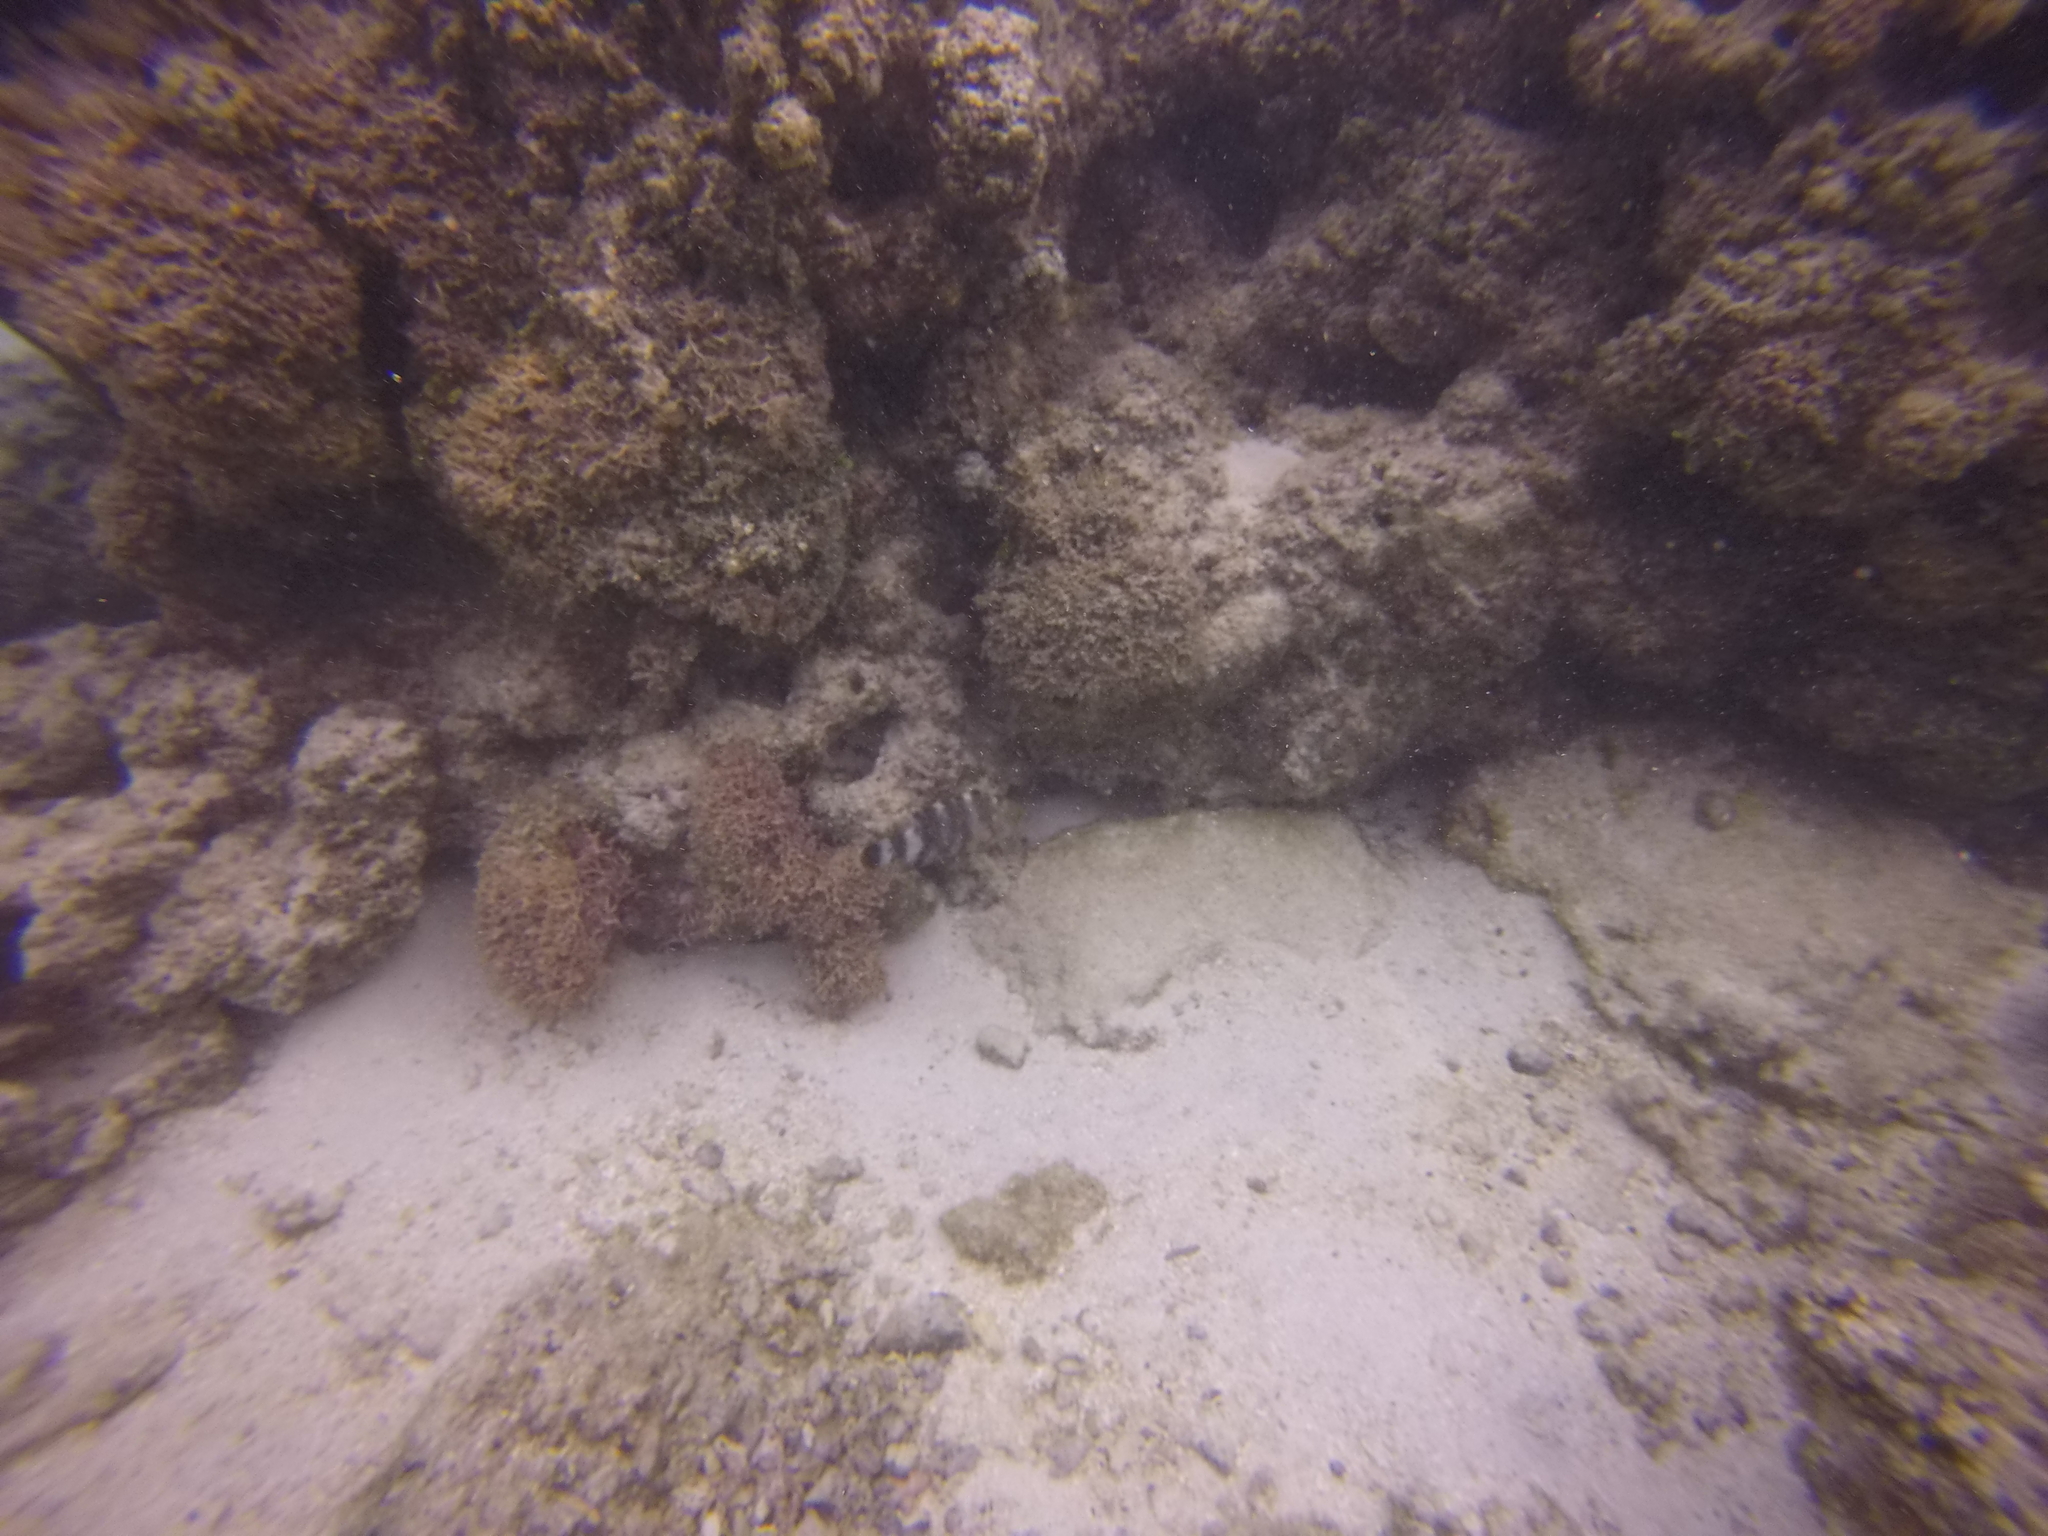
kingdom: Animalia
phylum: Chordata
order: Perciformes
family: Labridae
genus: Cheilinus
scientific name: Cheilinus trilobatus
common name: Tripletail maori wrasse
